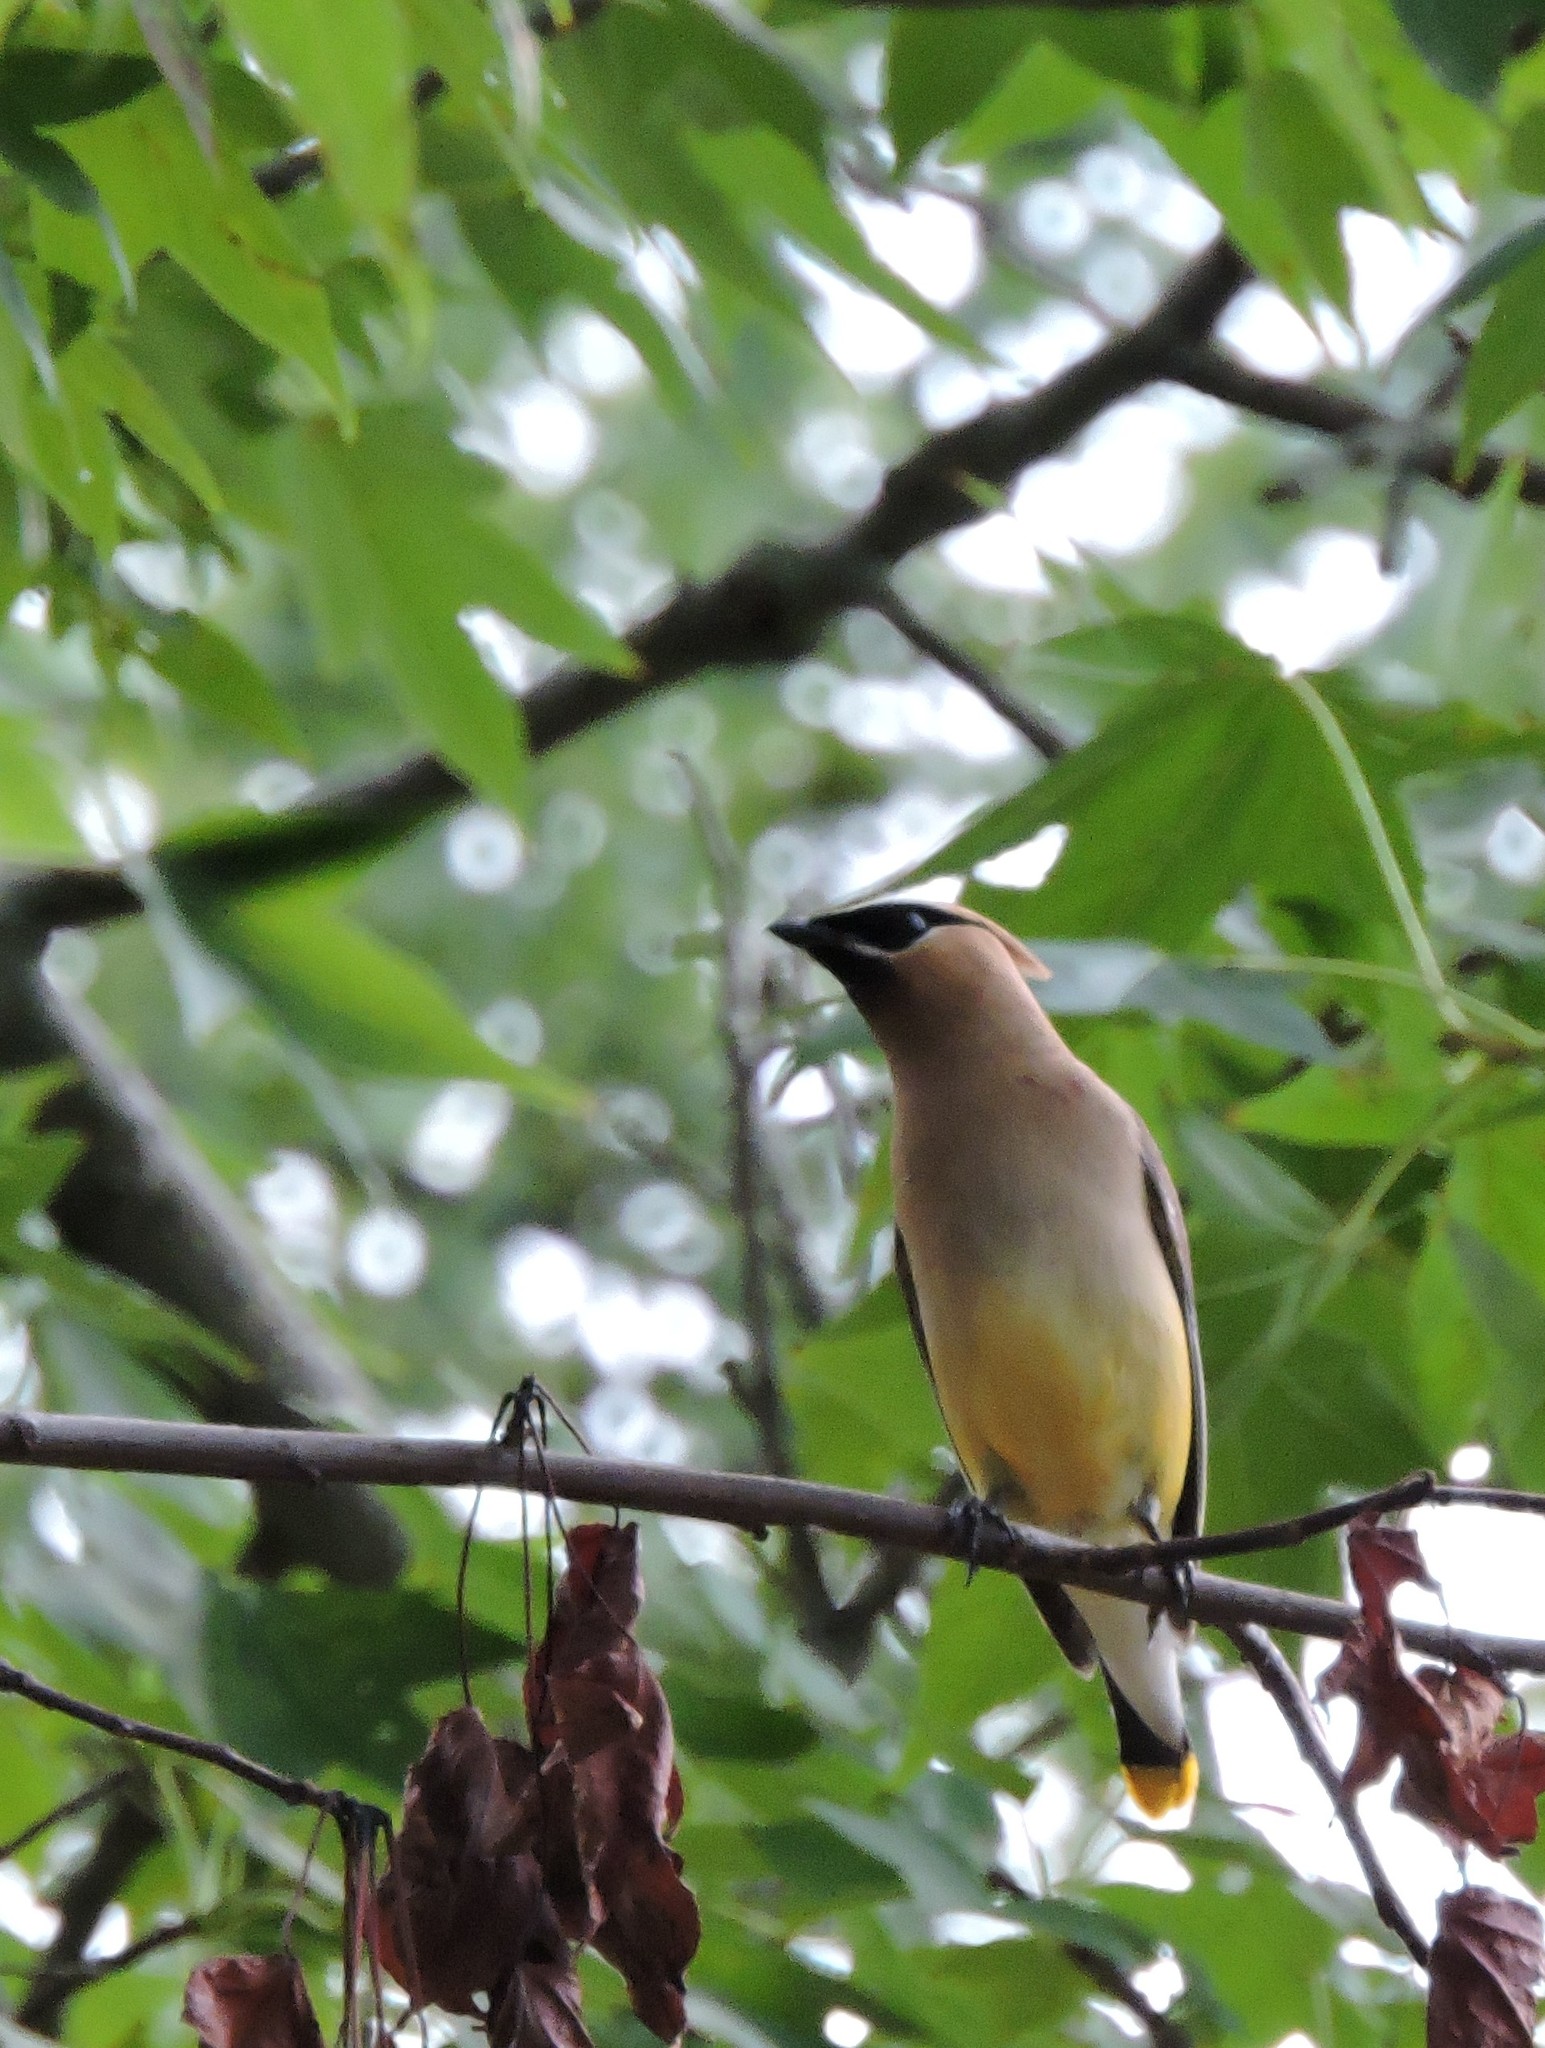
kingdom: Animalia
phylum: Chordata
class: Aves
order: Passeriformes
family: Bombycillidae
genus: Bombycilla
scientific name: Bombycilla cedrorum
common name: Cedar waxwing
